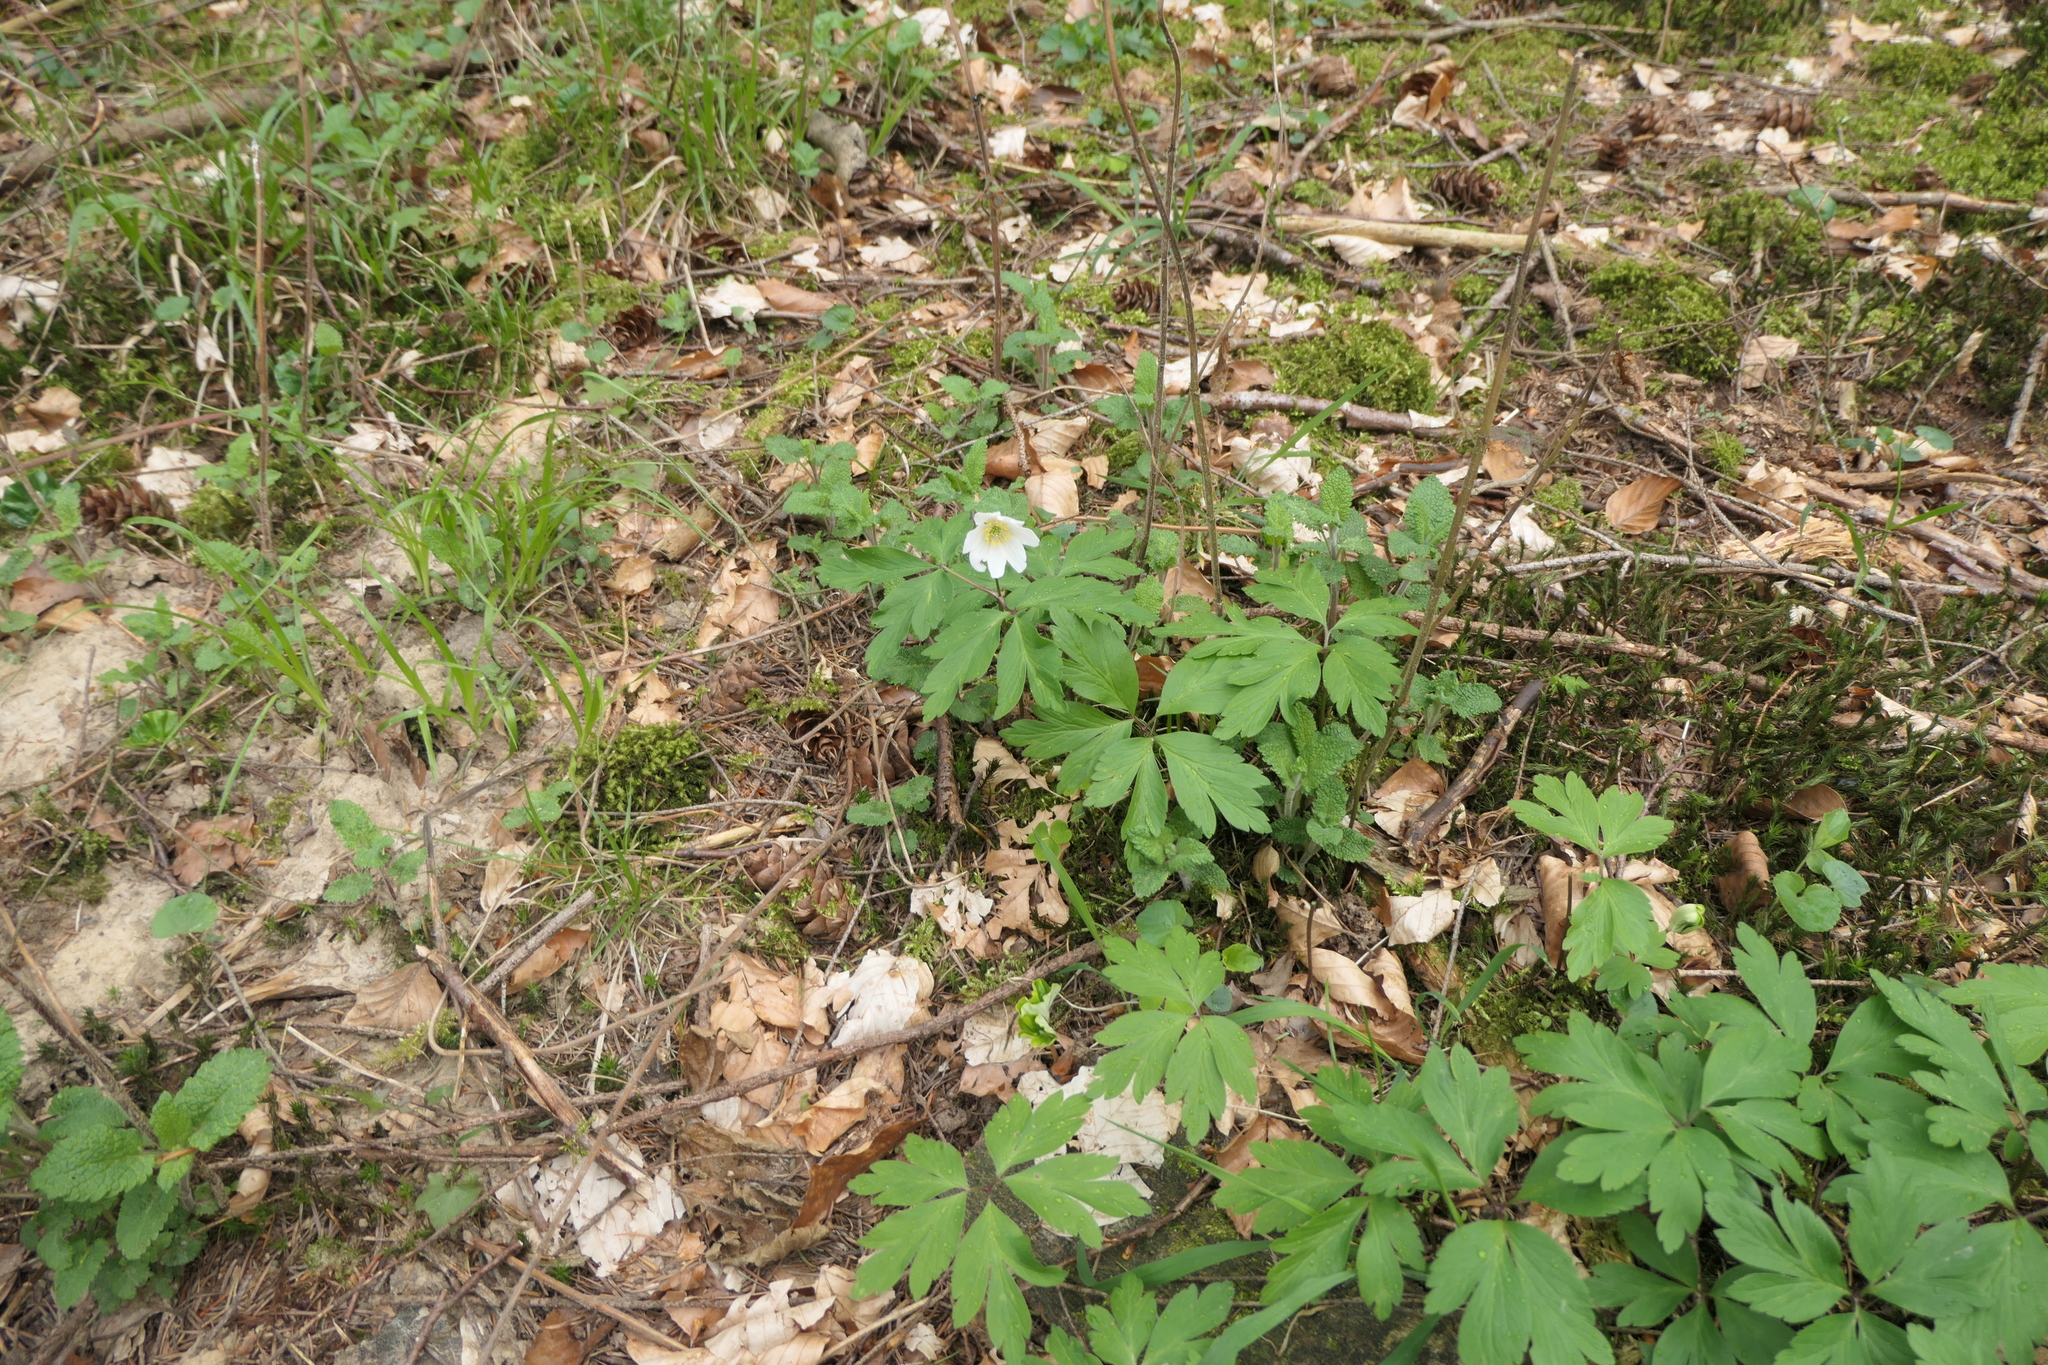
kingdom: Plantae
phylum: Tracheophyta
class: Magnoliopsida
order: Ranunculales
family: Ranunculaceae
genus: Anemone
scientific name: Anemone nemorosa
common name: Wood anemone
